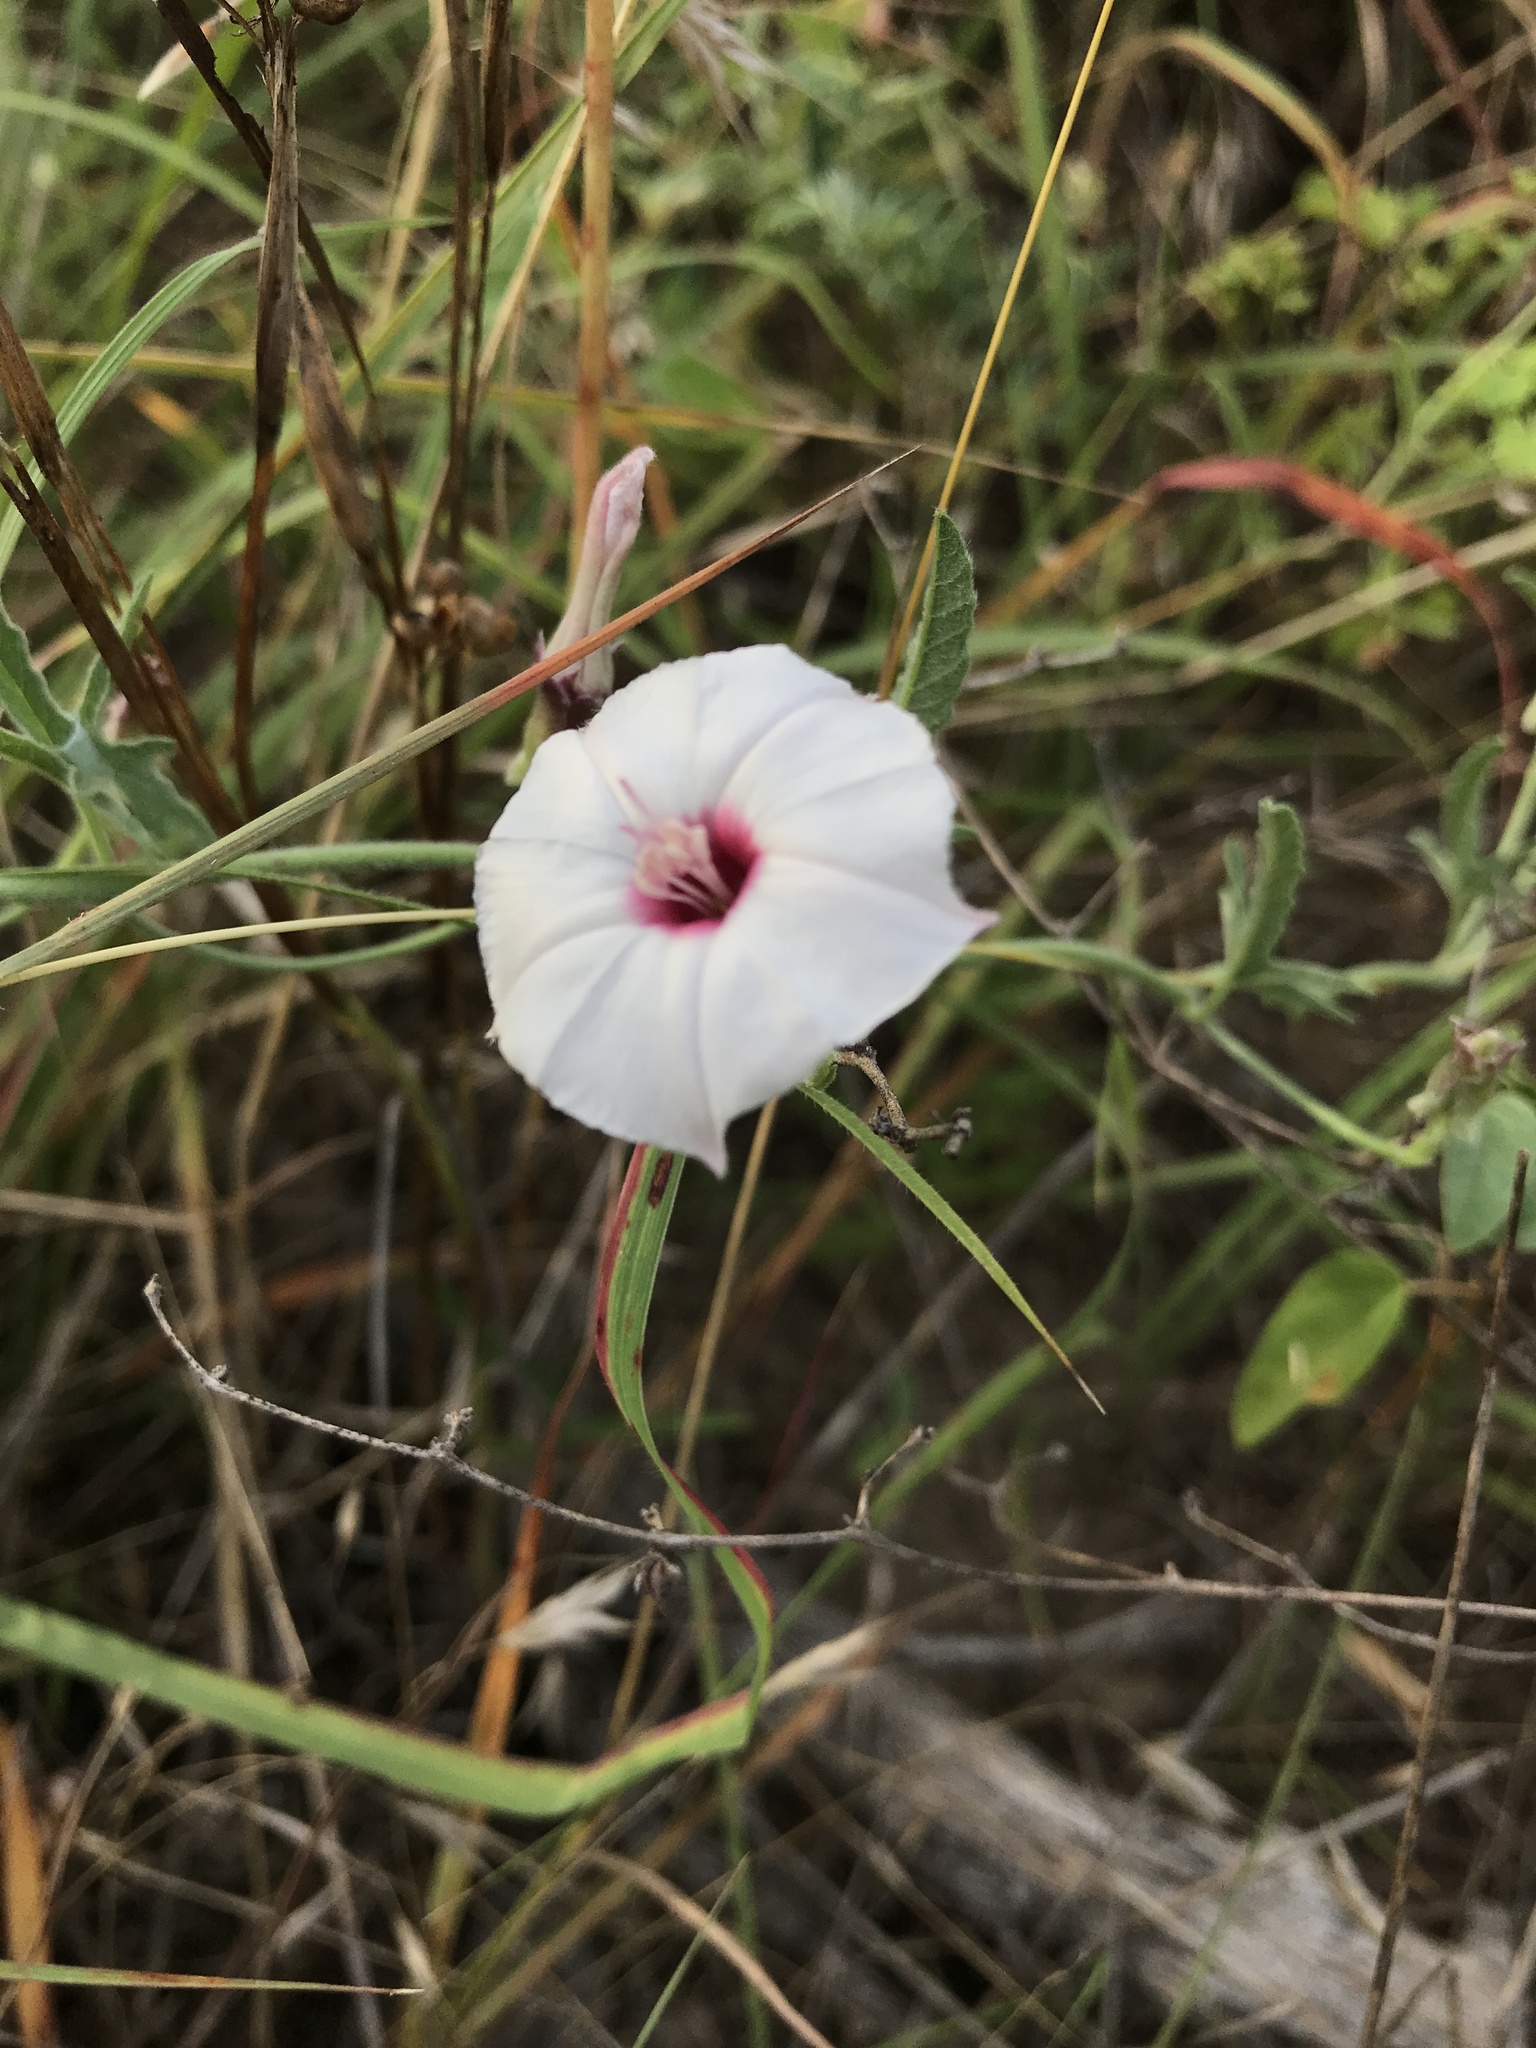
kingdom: Plantae
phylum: Tracheophyta
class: Magnoliopsida
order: Solanales
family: Convolvulaceae
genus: Convolvulus
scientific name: Convolvulus equitans
